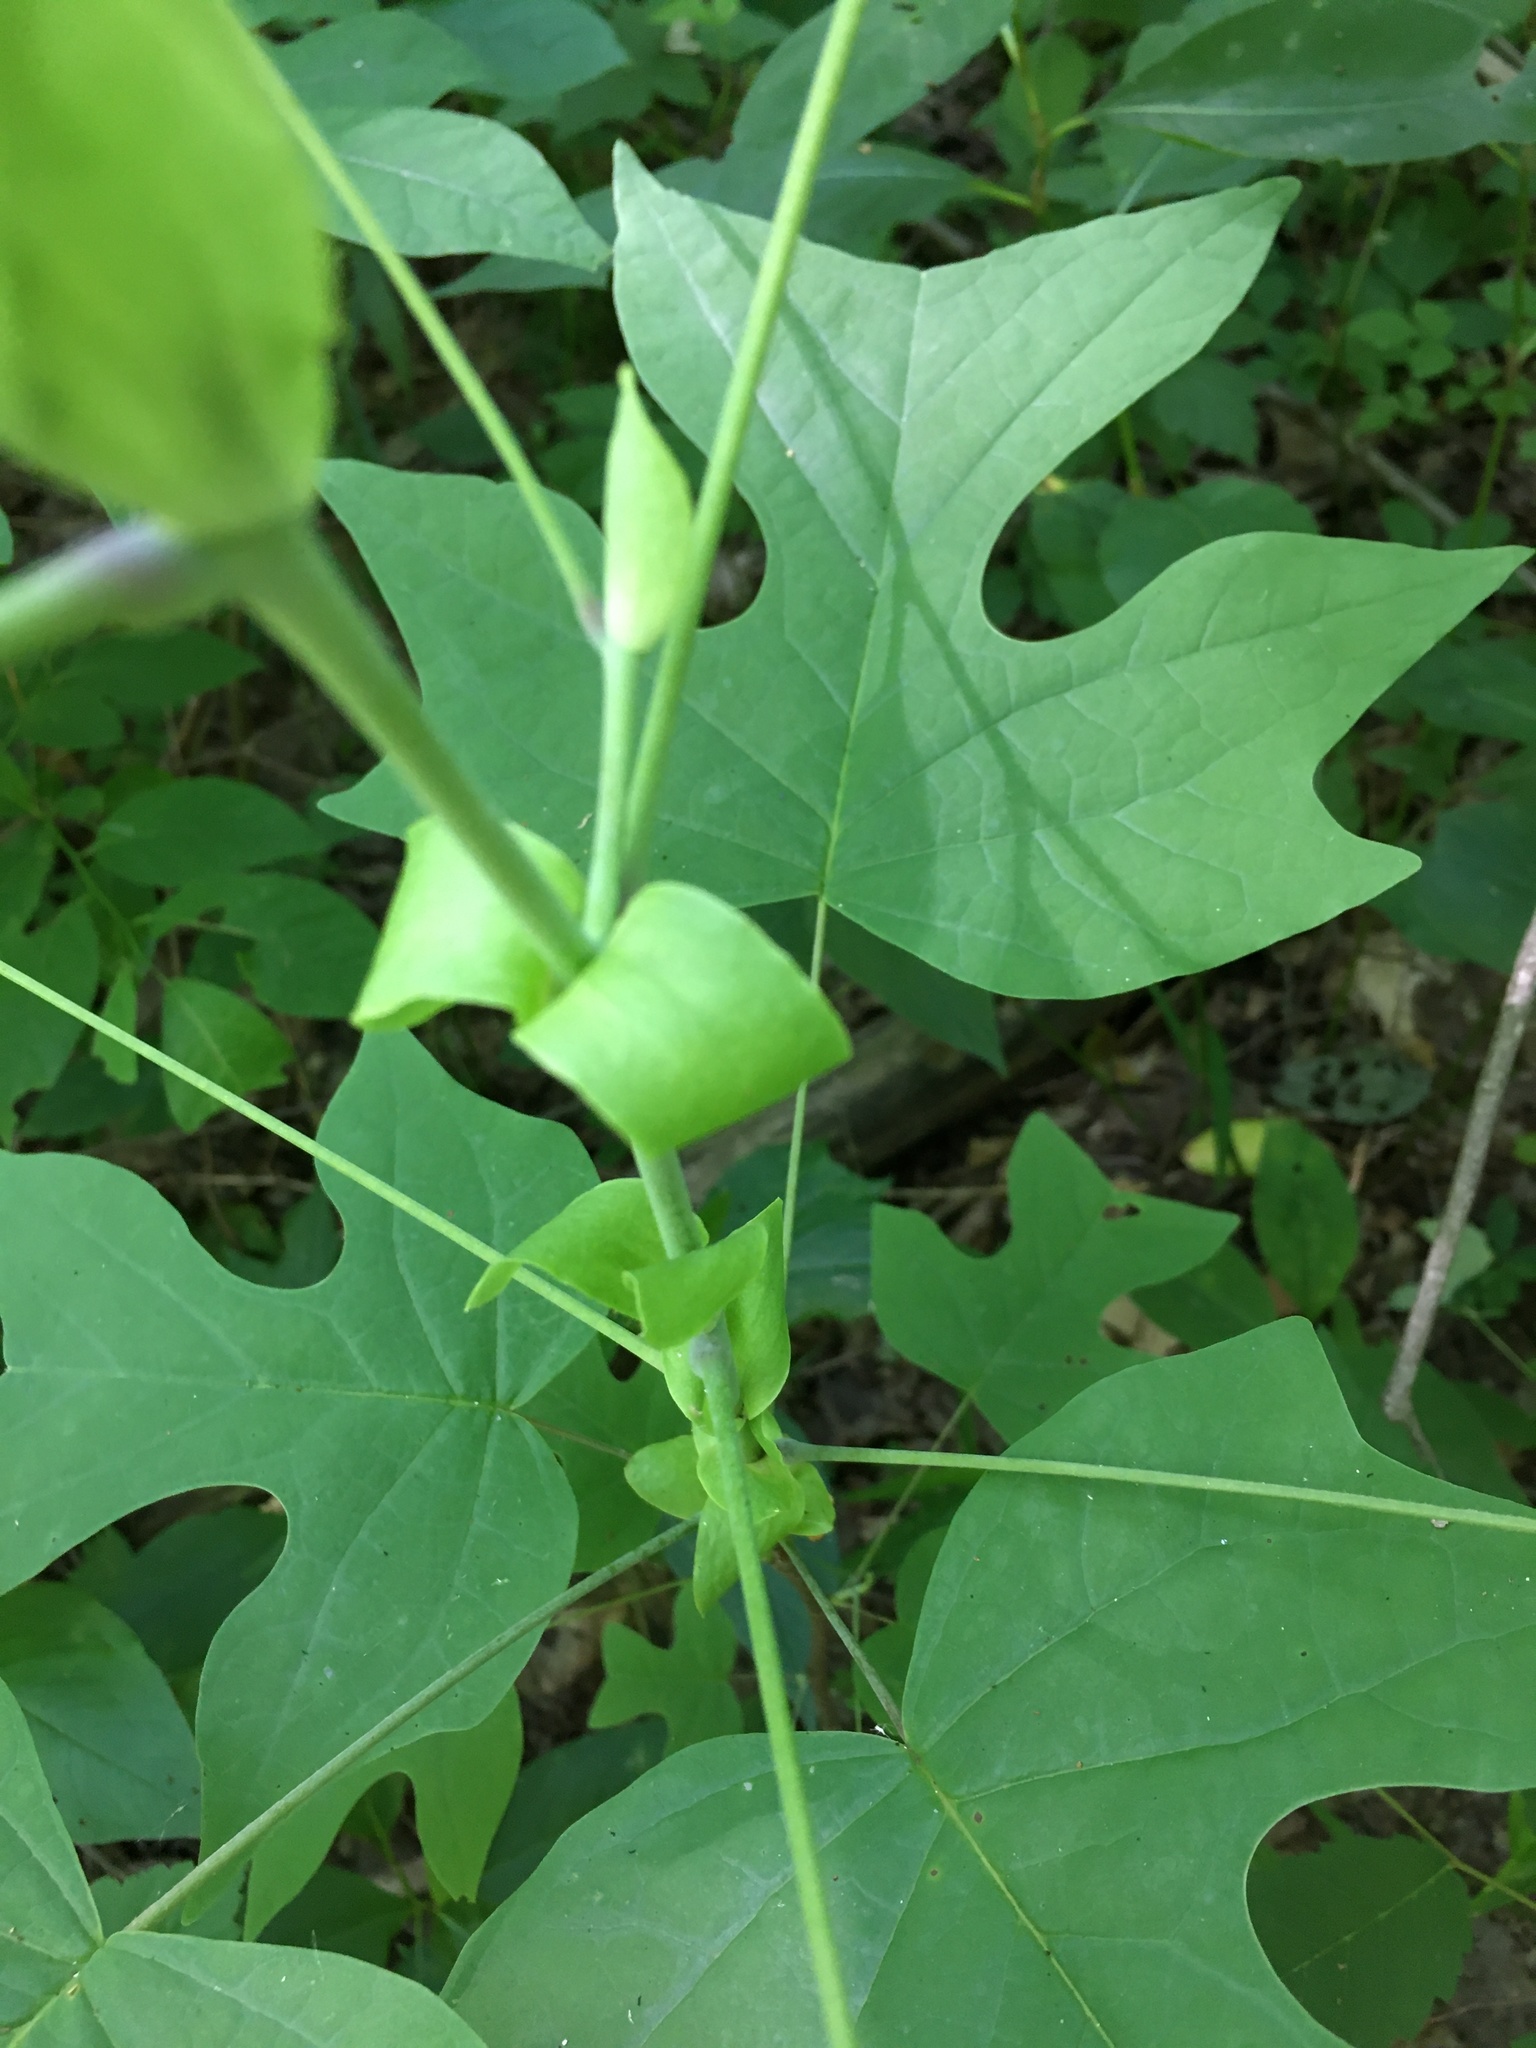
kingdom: Plantae
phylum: Tracheophyta
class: Magnoliopsida
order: Magnoliales
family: Magnoliaceae
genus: Liriodendron
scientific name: Liriodendron tulipifera
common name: Tulip tree
